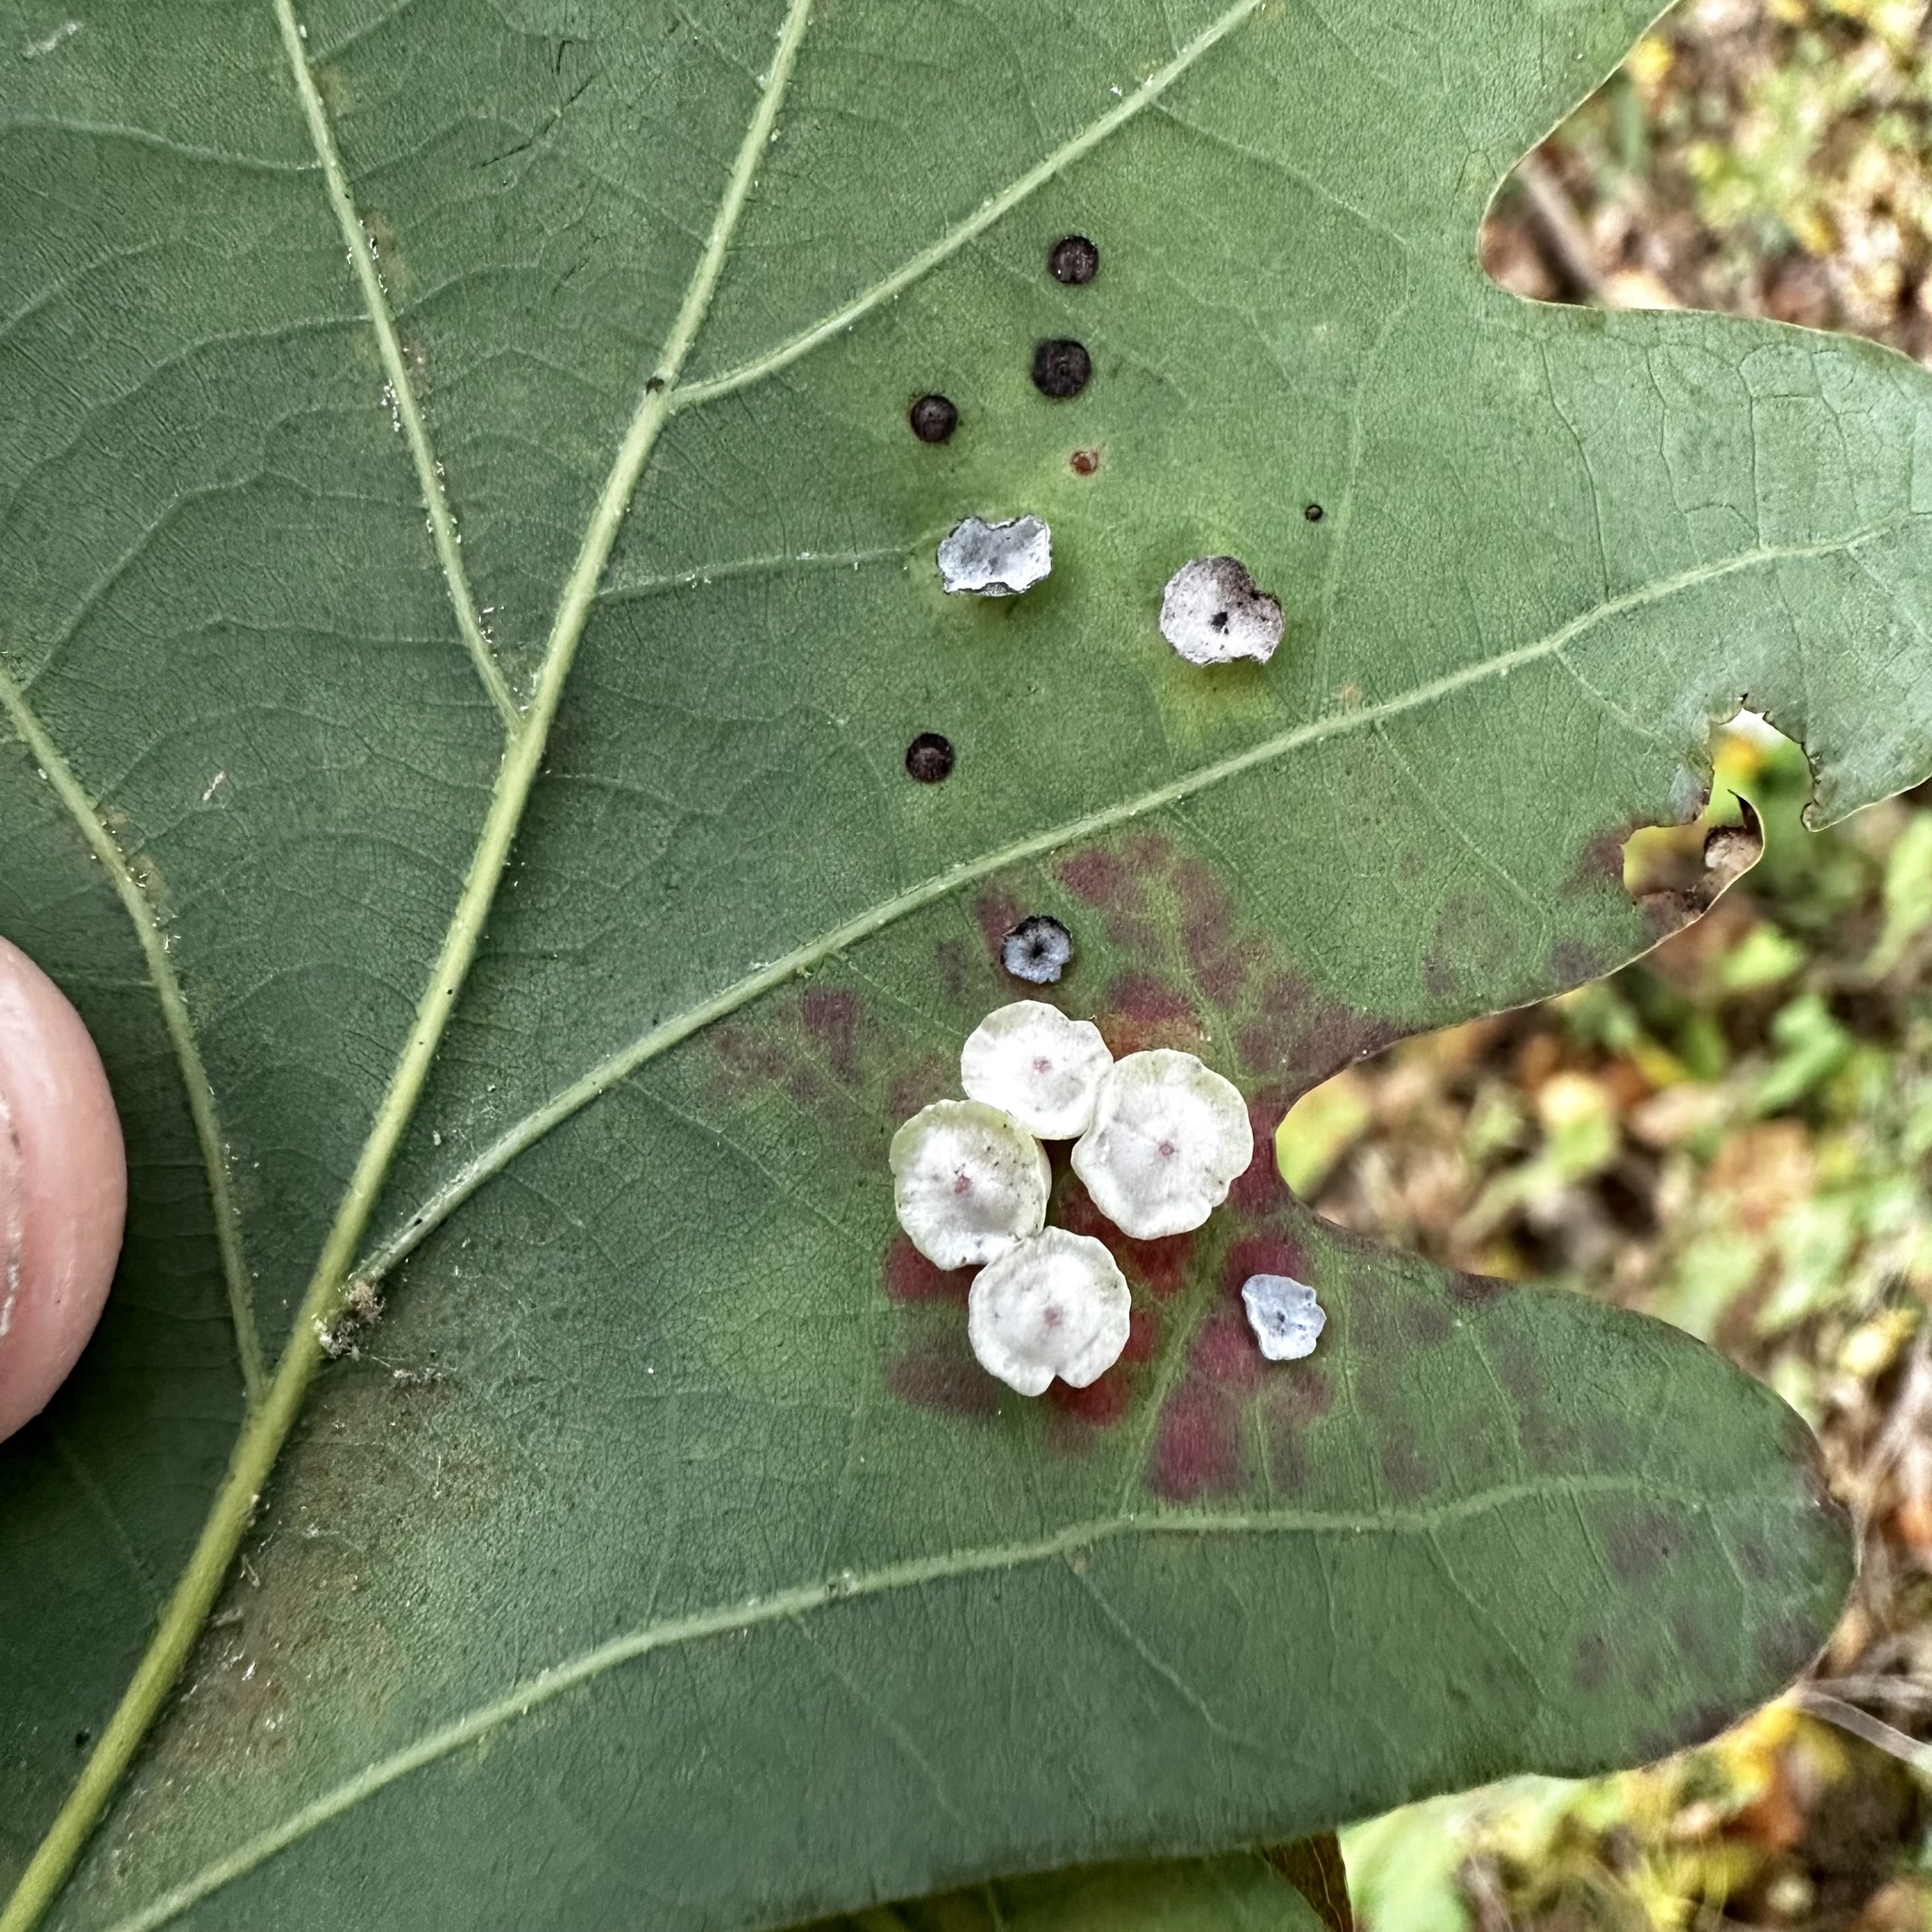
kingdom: Animalia
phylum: Arthropoda
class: Insecta
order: Hymenoptera
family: Cynipidae
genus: Phylloteras
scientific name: Phylloteras poculum
